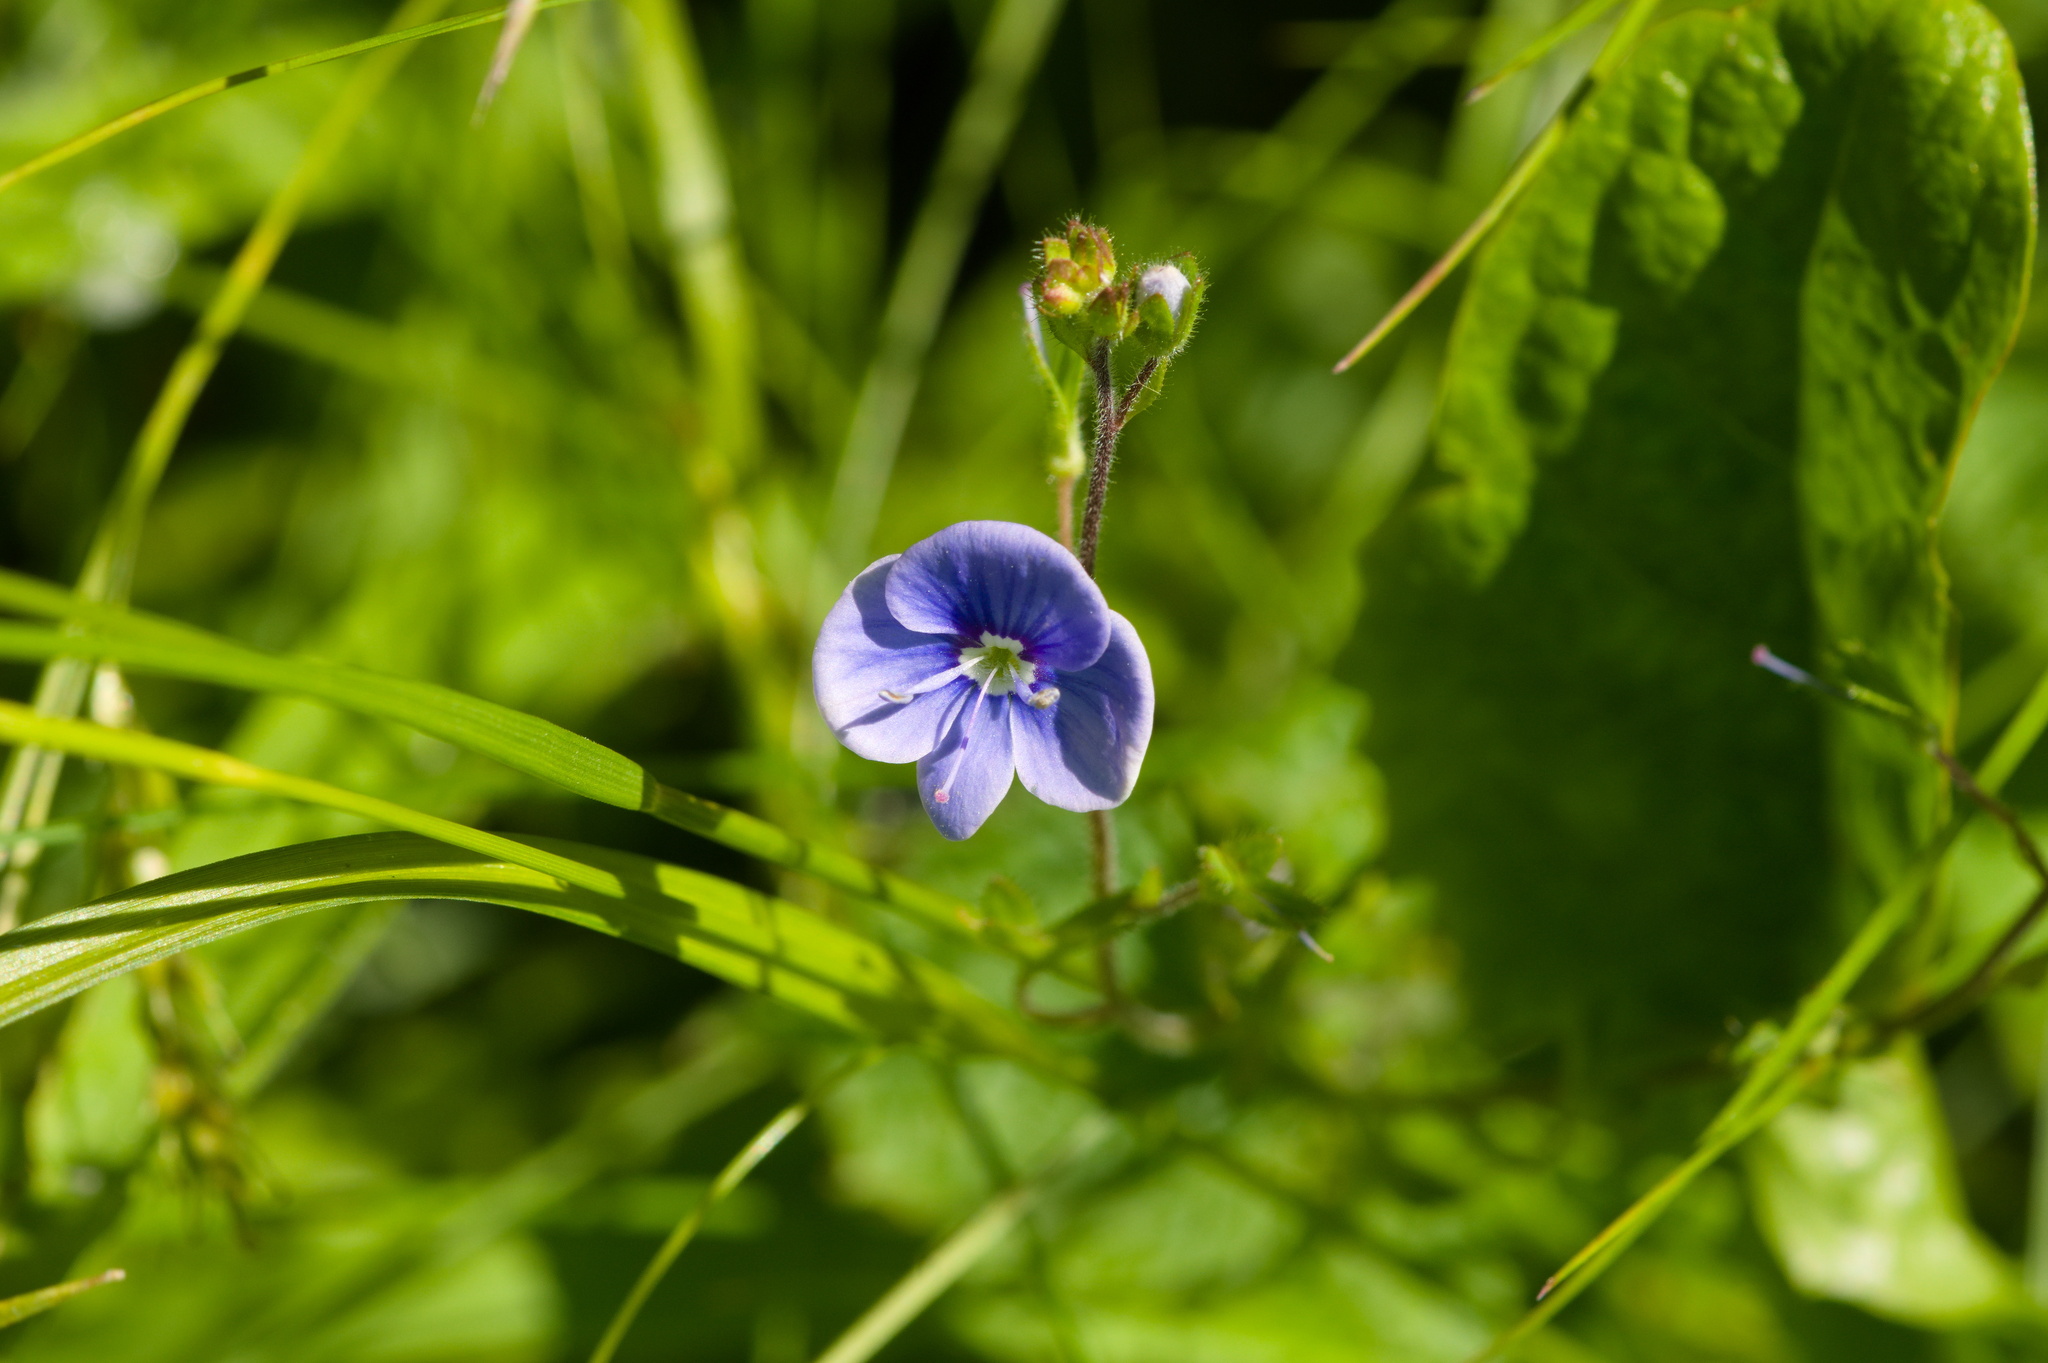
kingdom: Plantae
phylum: Tracheophyta
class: Magnoliopsida
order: Lamiales
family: Plantaginaceae
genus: Veronica
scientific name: Veronica chamaedrys
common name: Germander speedwell
